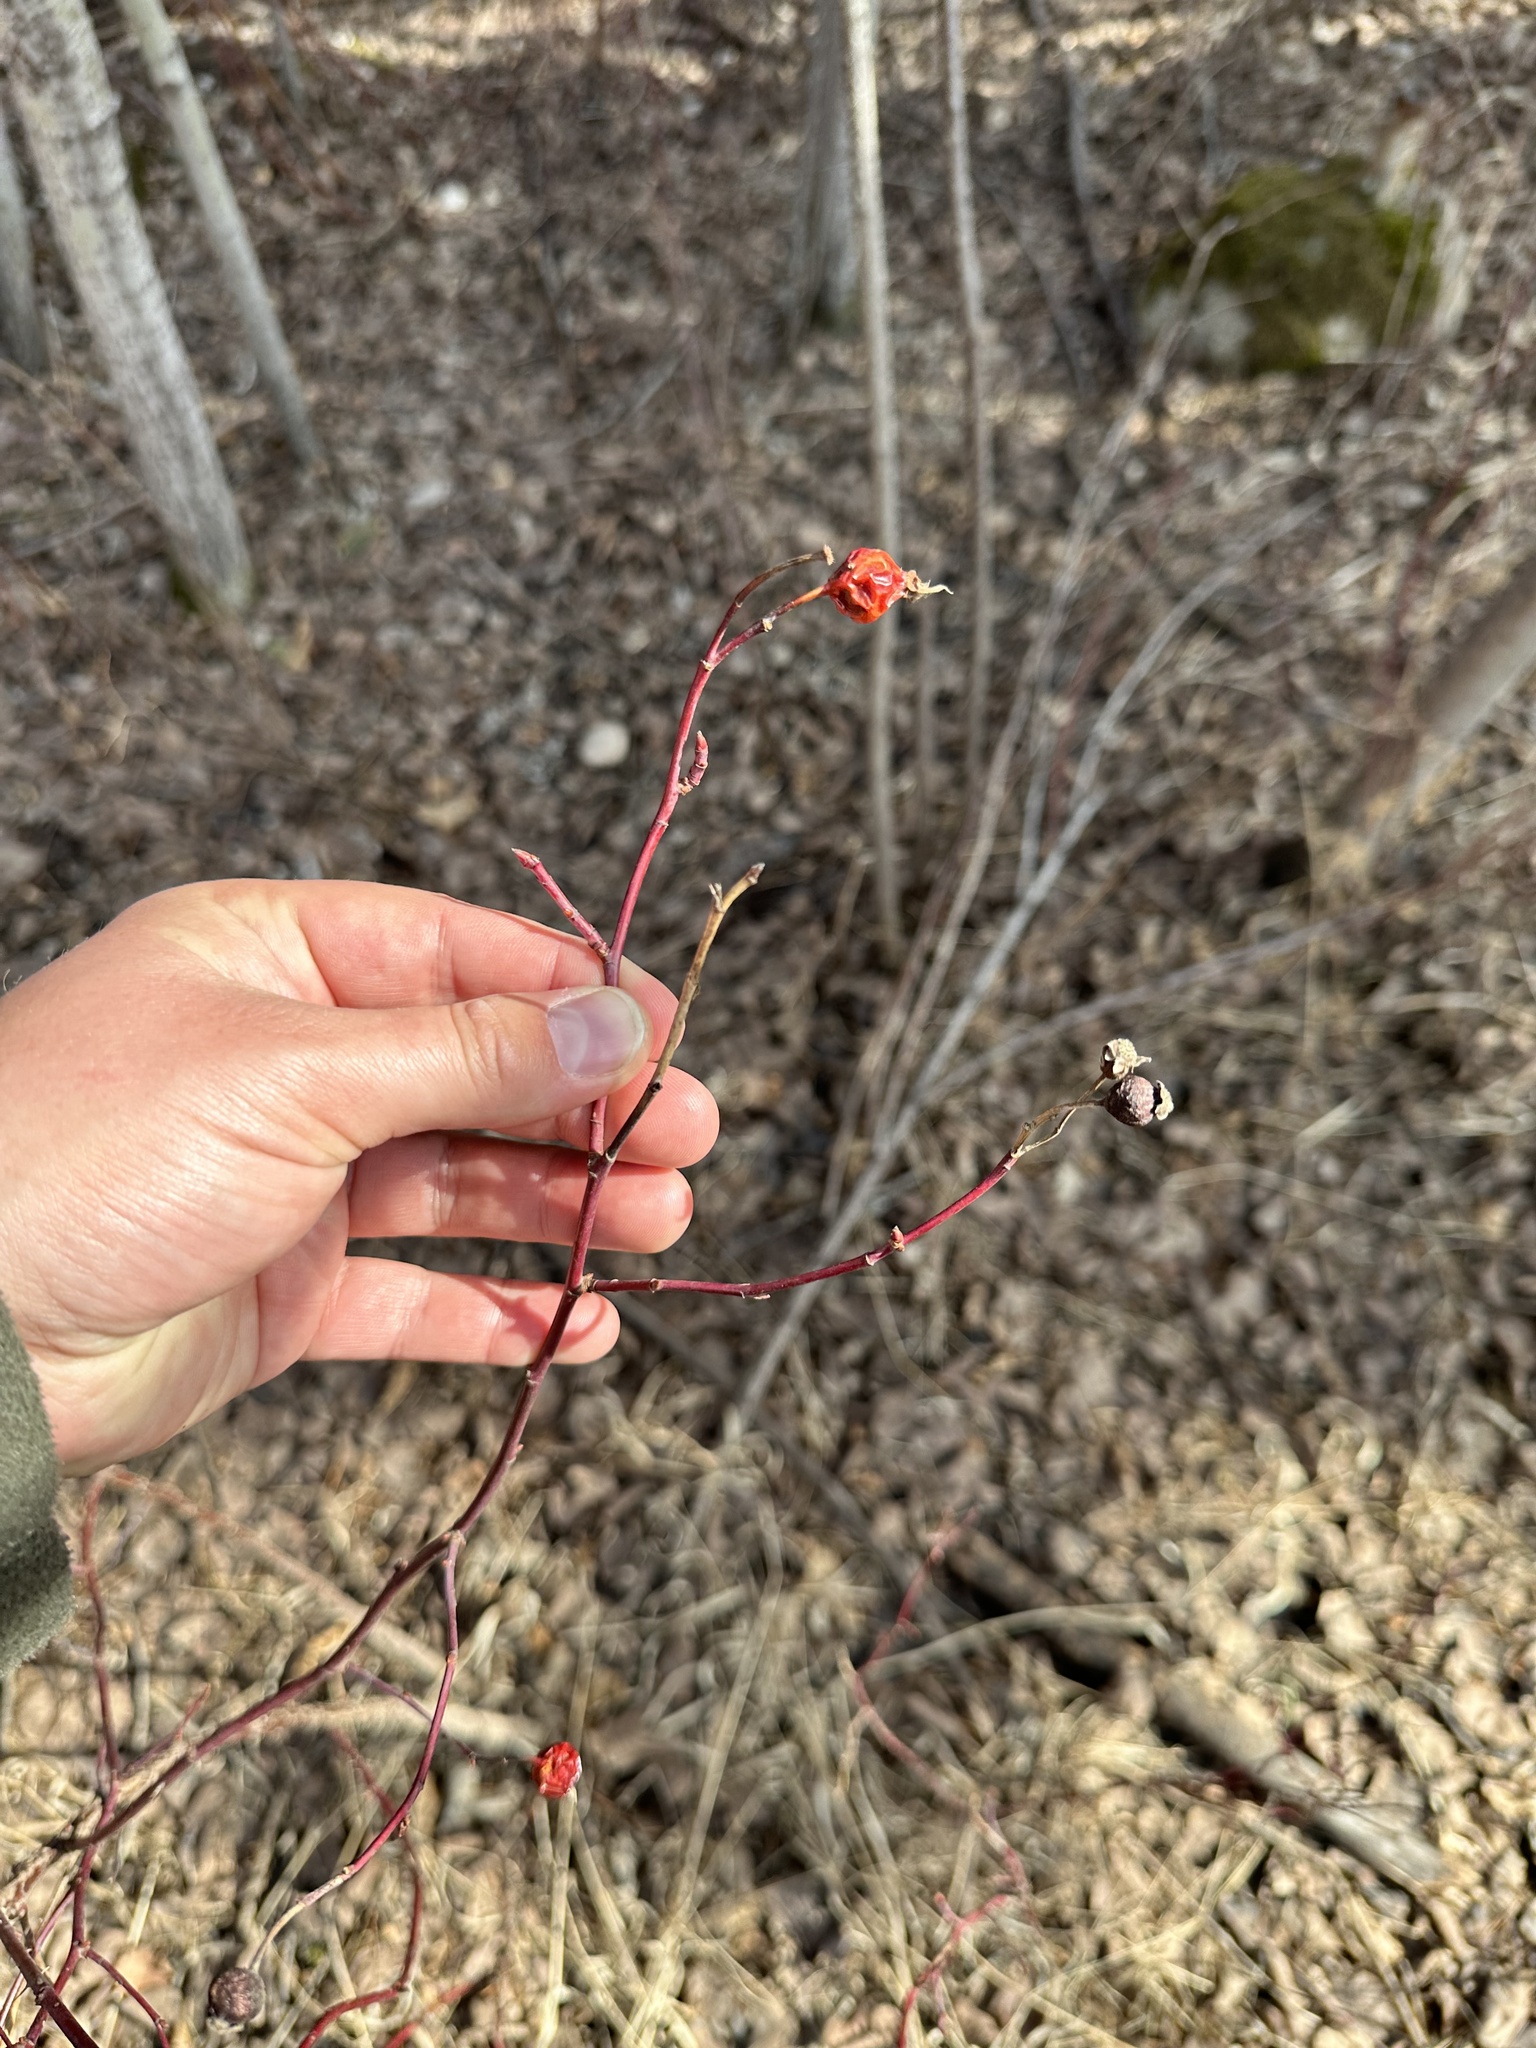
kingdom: Plantae
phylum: Tracheophyta
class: Magnoliopsida
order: Rosales
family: Rosaceae
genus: Rosa
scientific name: Rosa woodsii
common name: Woods's rose
